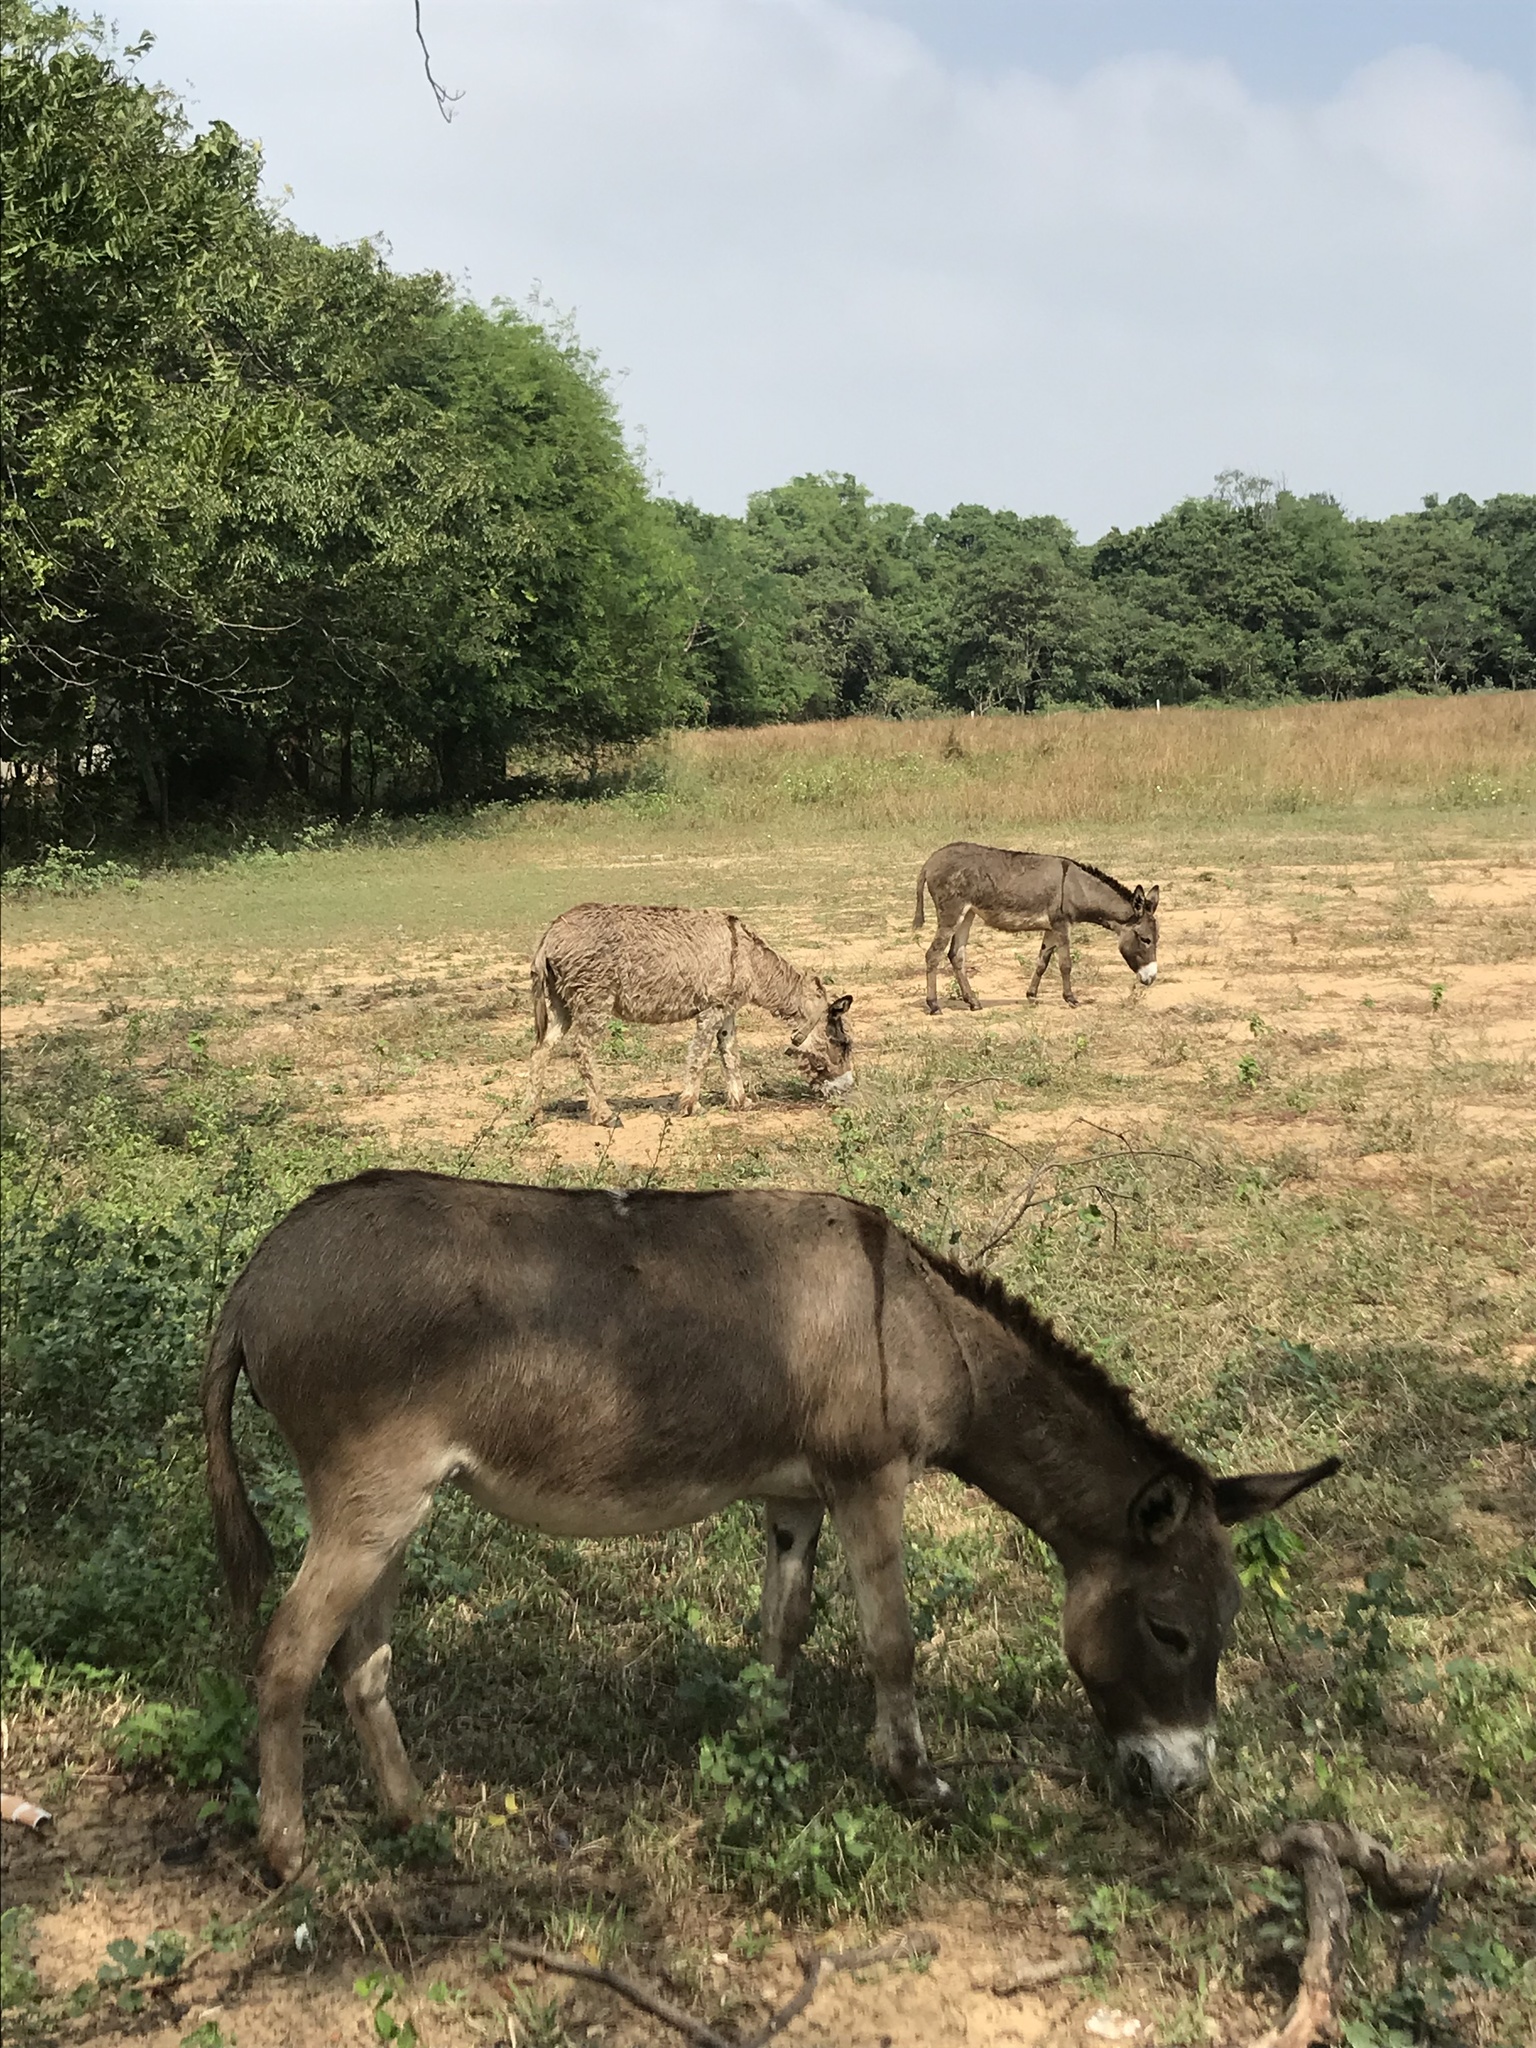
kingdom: Animalia
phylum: Chordata
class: Mammalia
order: Perissodactyla
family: Equidae
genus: Equus
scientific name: Equus asinus
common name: Ass
